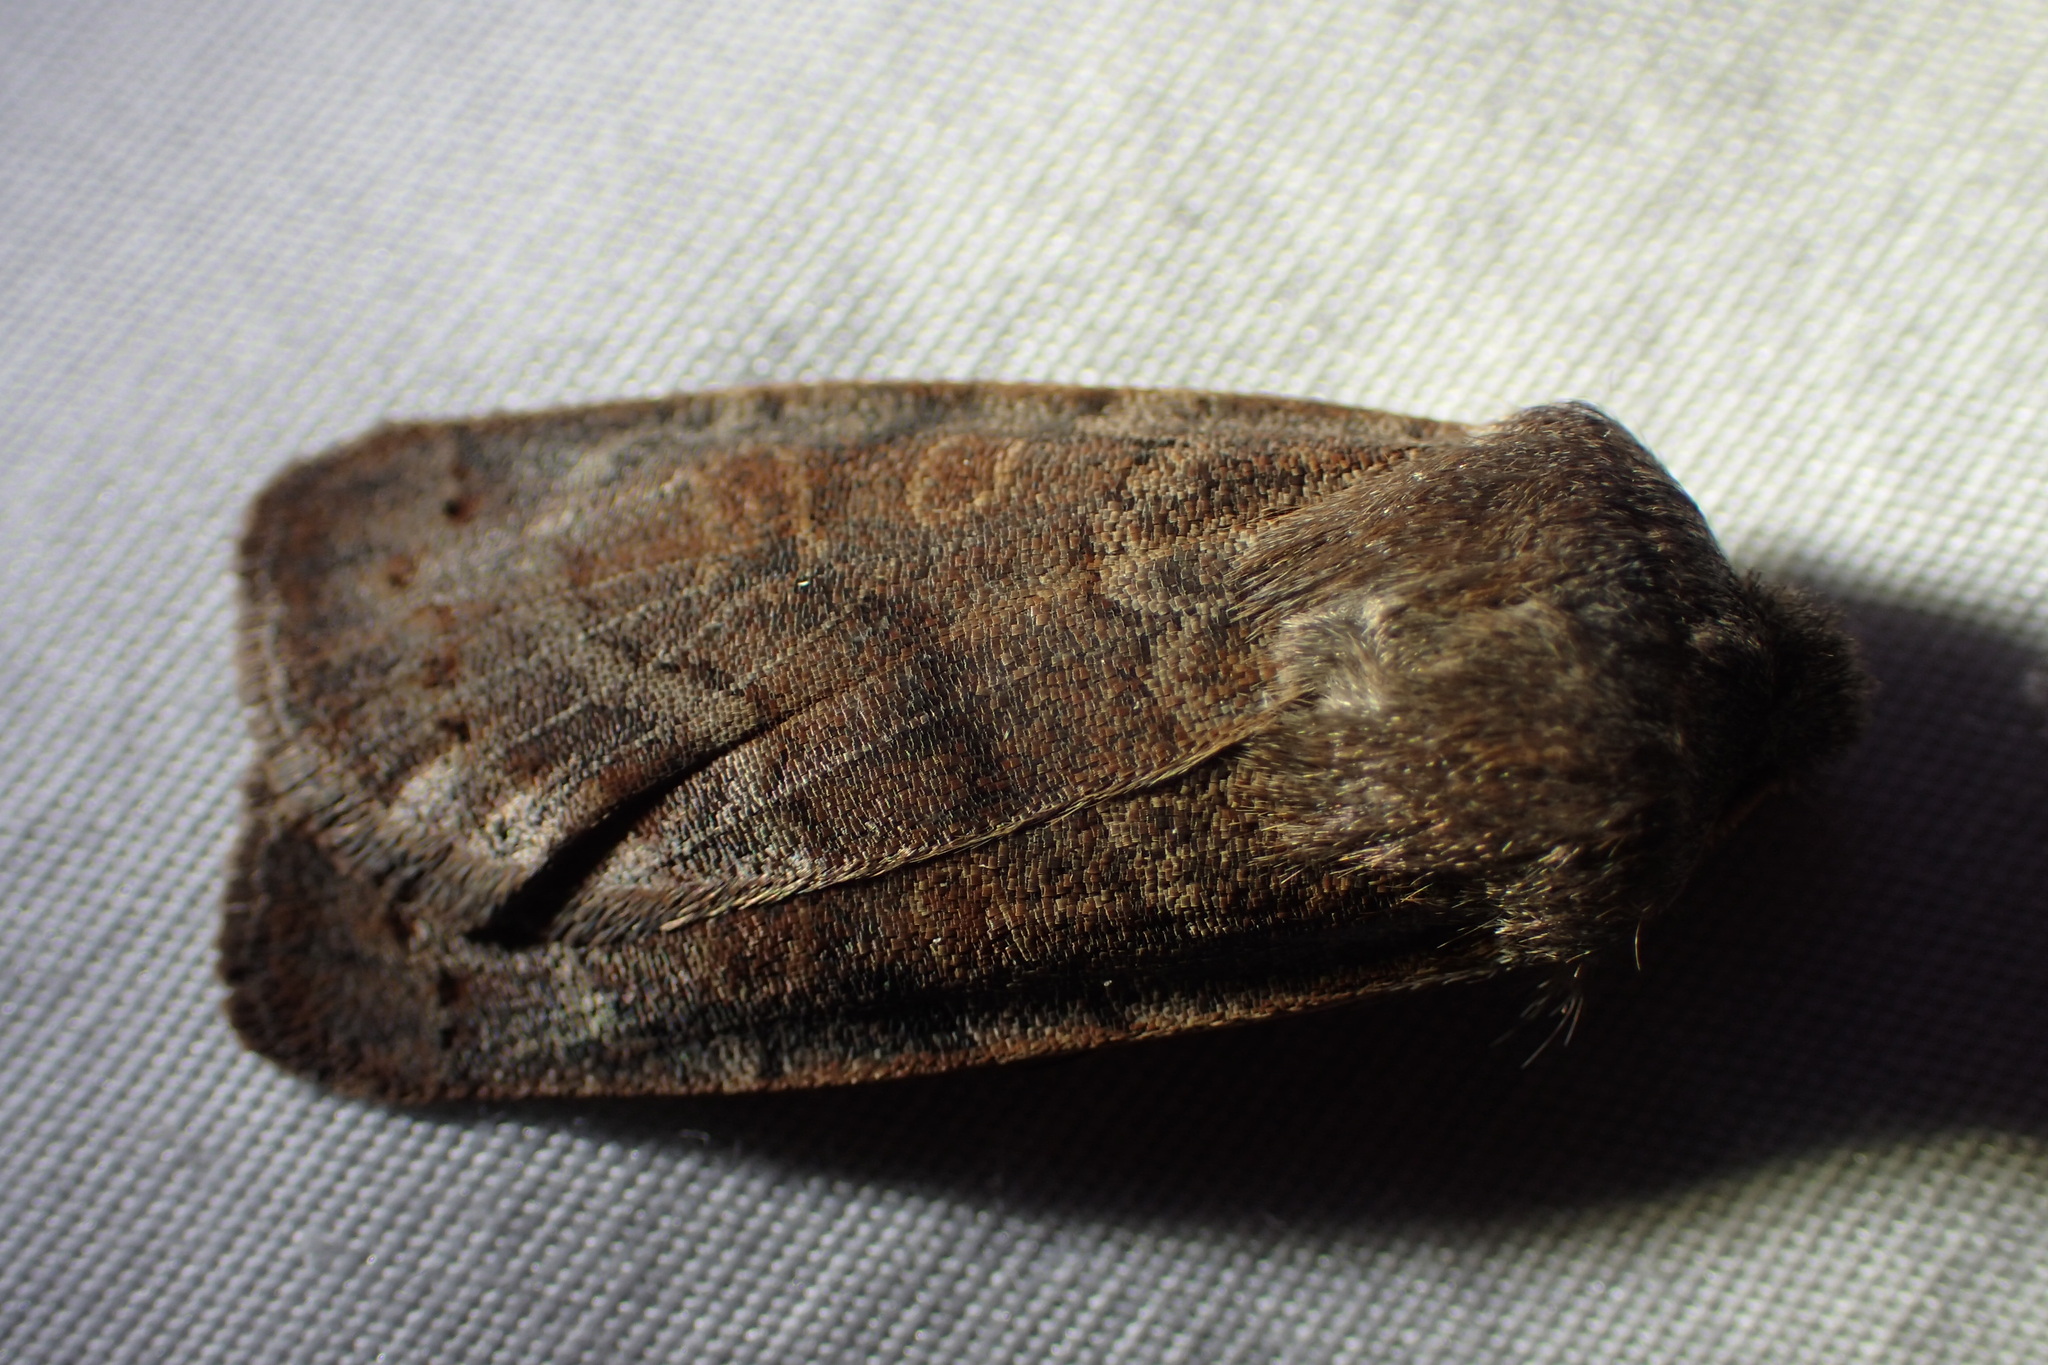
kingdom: Animalia
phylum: Arthropoda
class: Insecta
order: Lepidoptera
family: Noctuidae
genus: Homoglaea
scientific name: Homoglaea hircina
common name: Goat sallow
